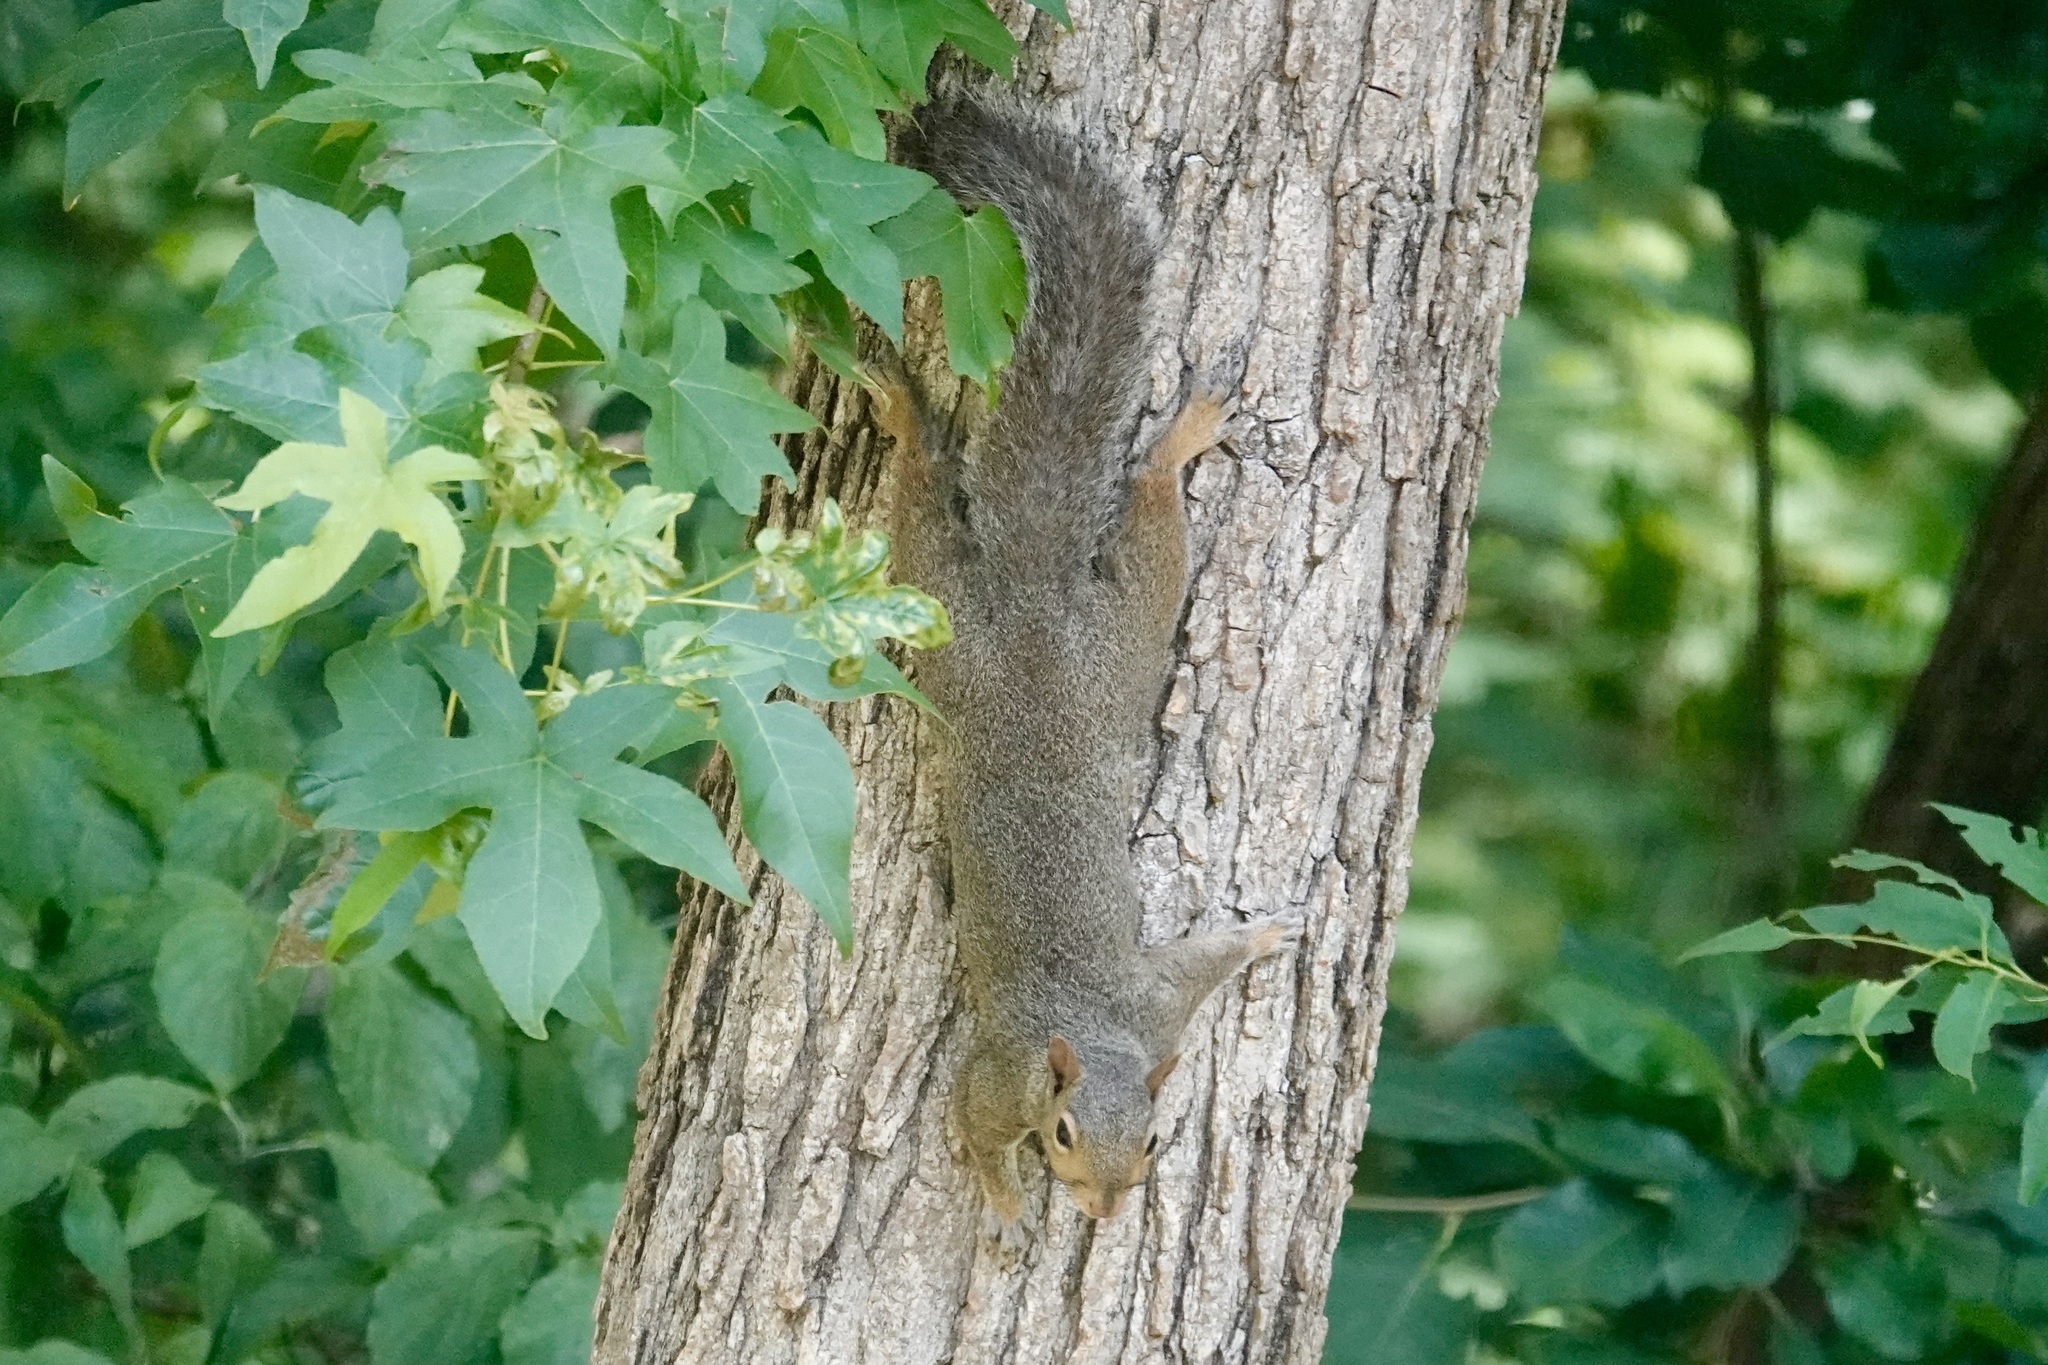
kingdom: Animalia
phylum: Chordata
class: Mammalia
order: Rodentia
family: Sciuridae
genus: Sciurus
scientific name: Sciurus carolinensis
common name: Eastern gray squirrel
